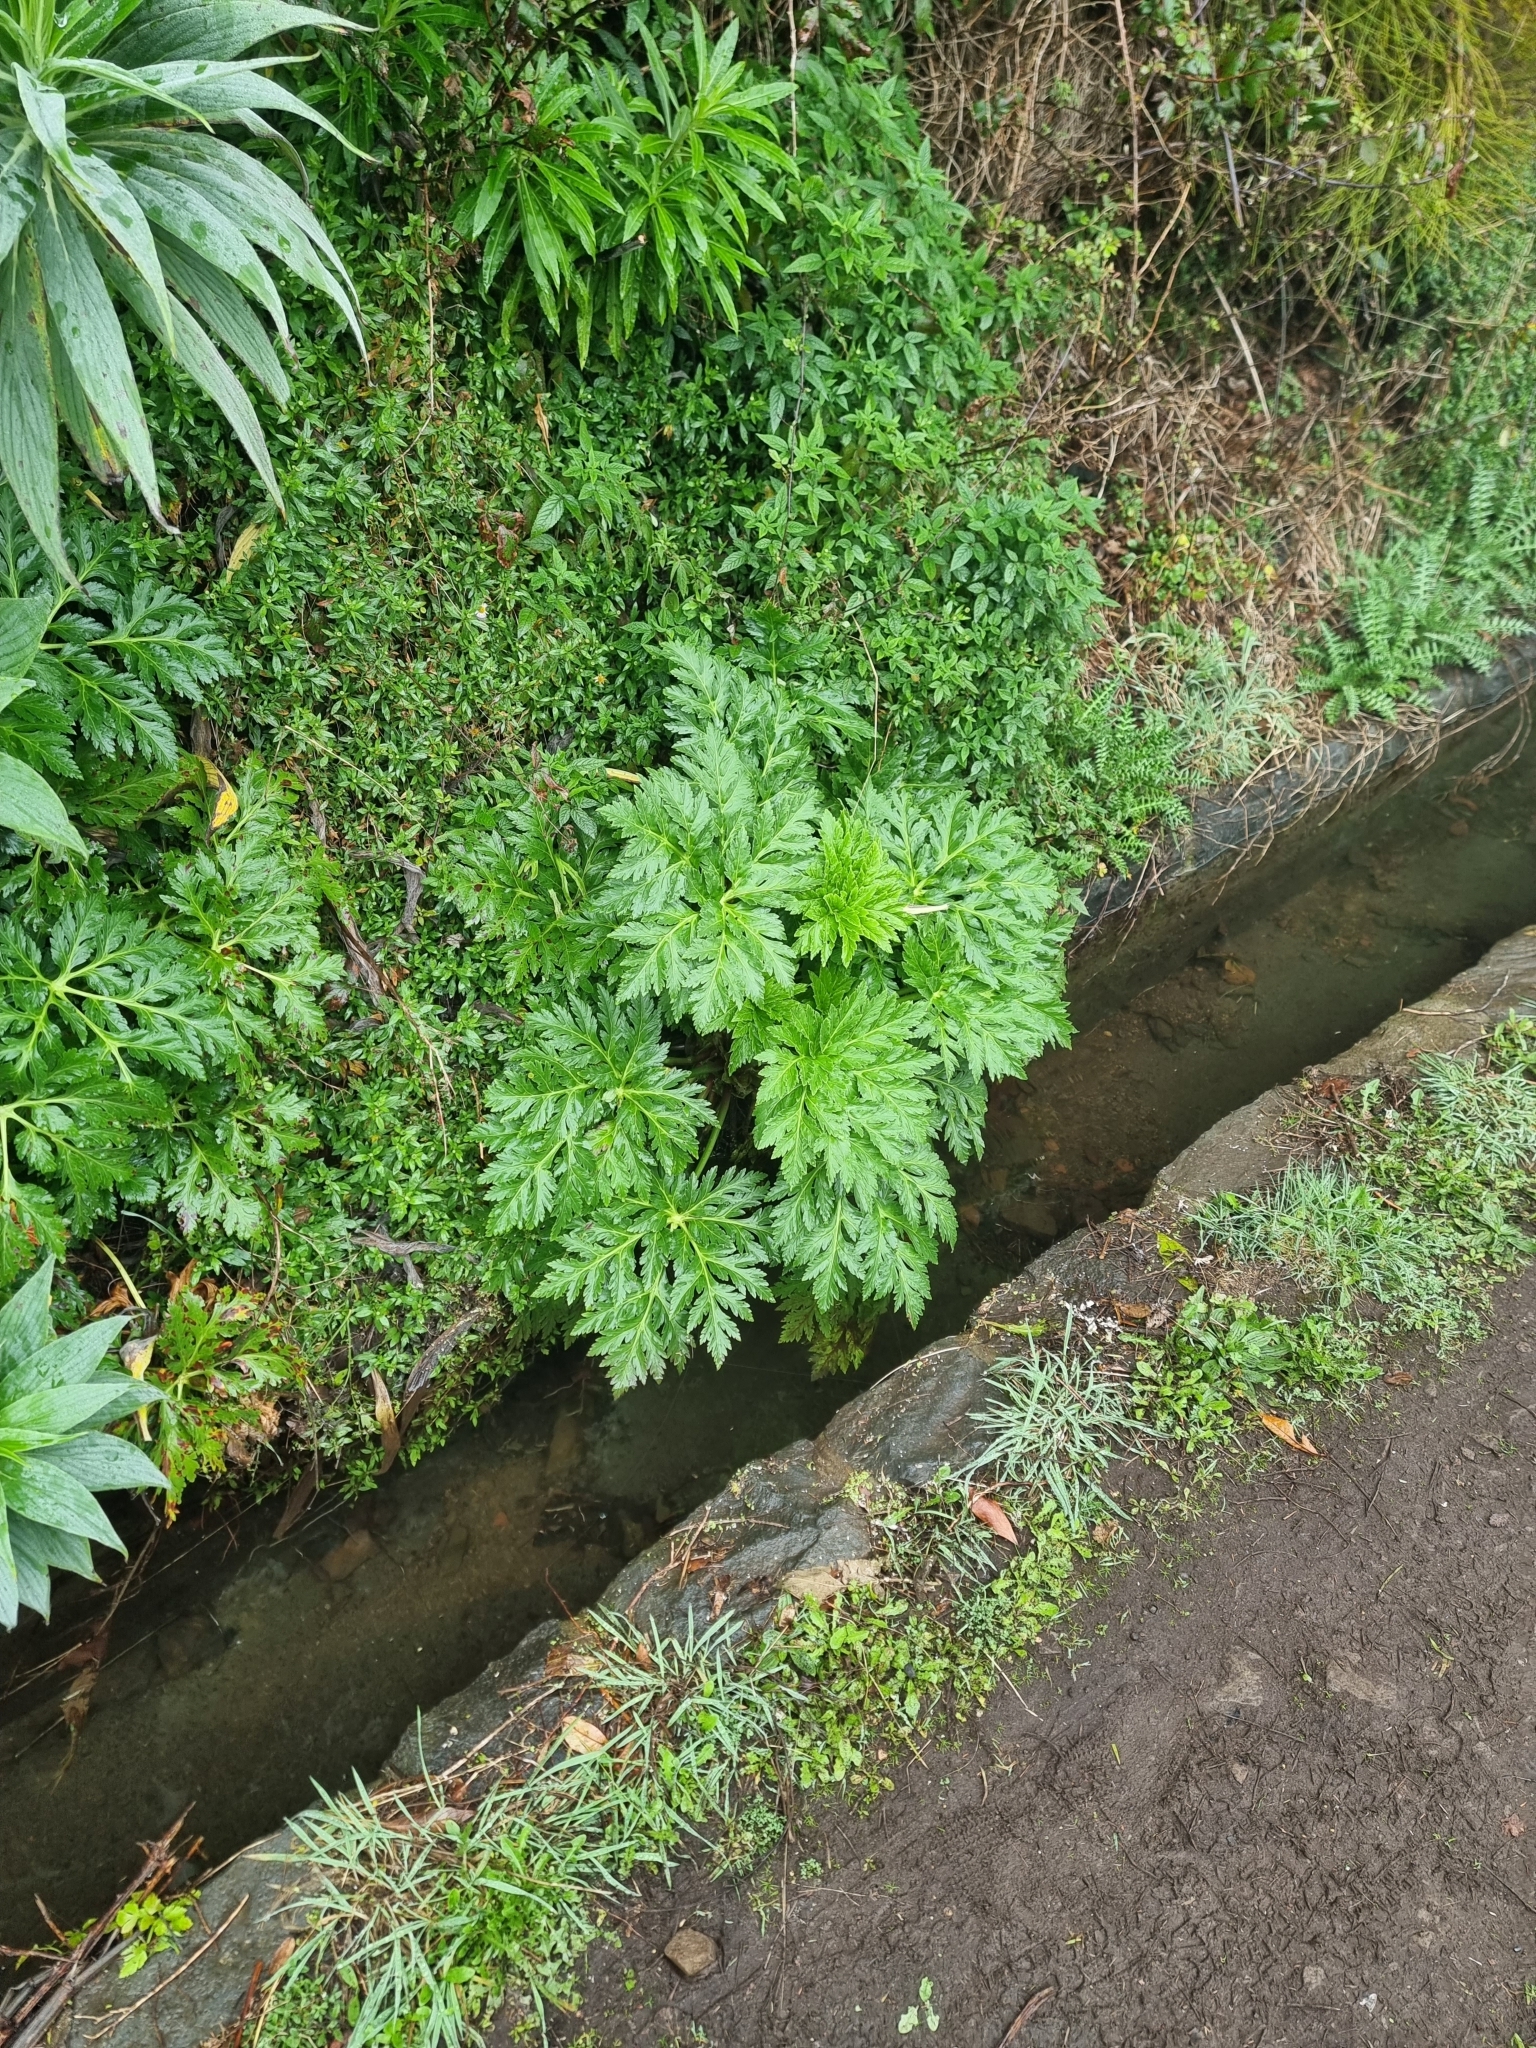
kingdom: Plantae
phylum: Tracheophyta
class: Magnoliopsida
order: Geraniales
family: Geraniaceae
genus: Geranium
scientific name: Geranium palmatum
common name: Canary island geranium
